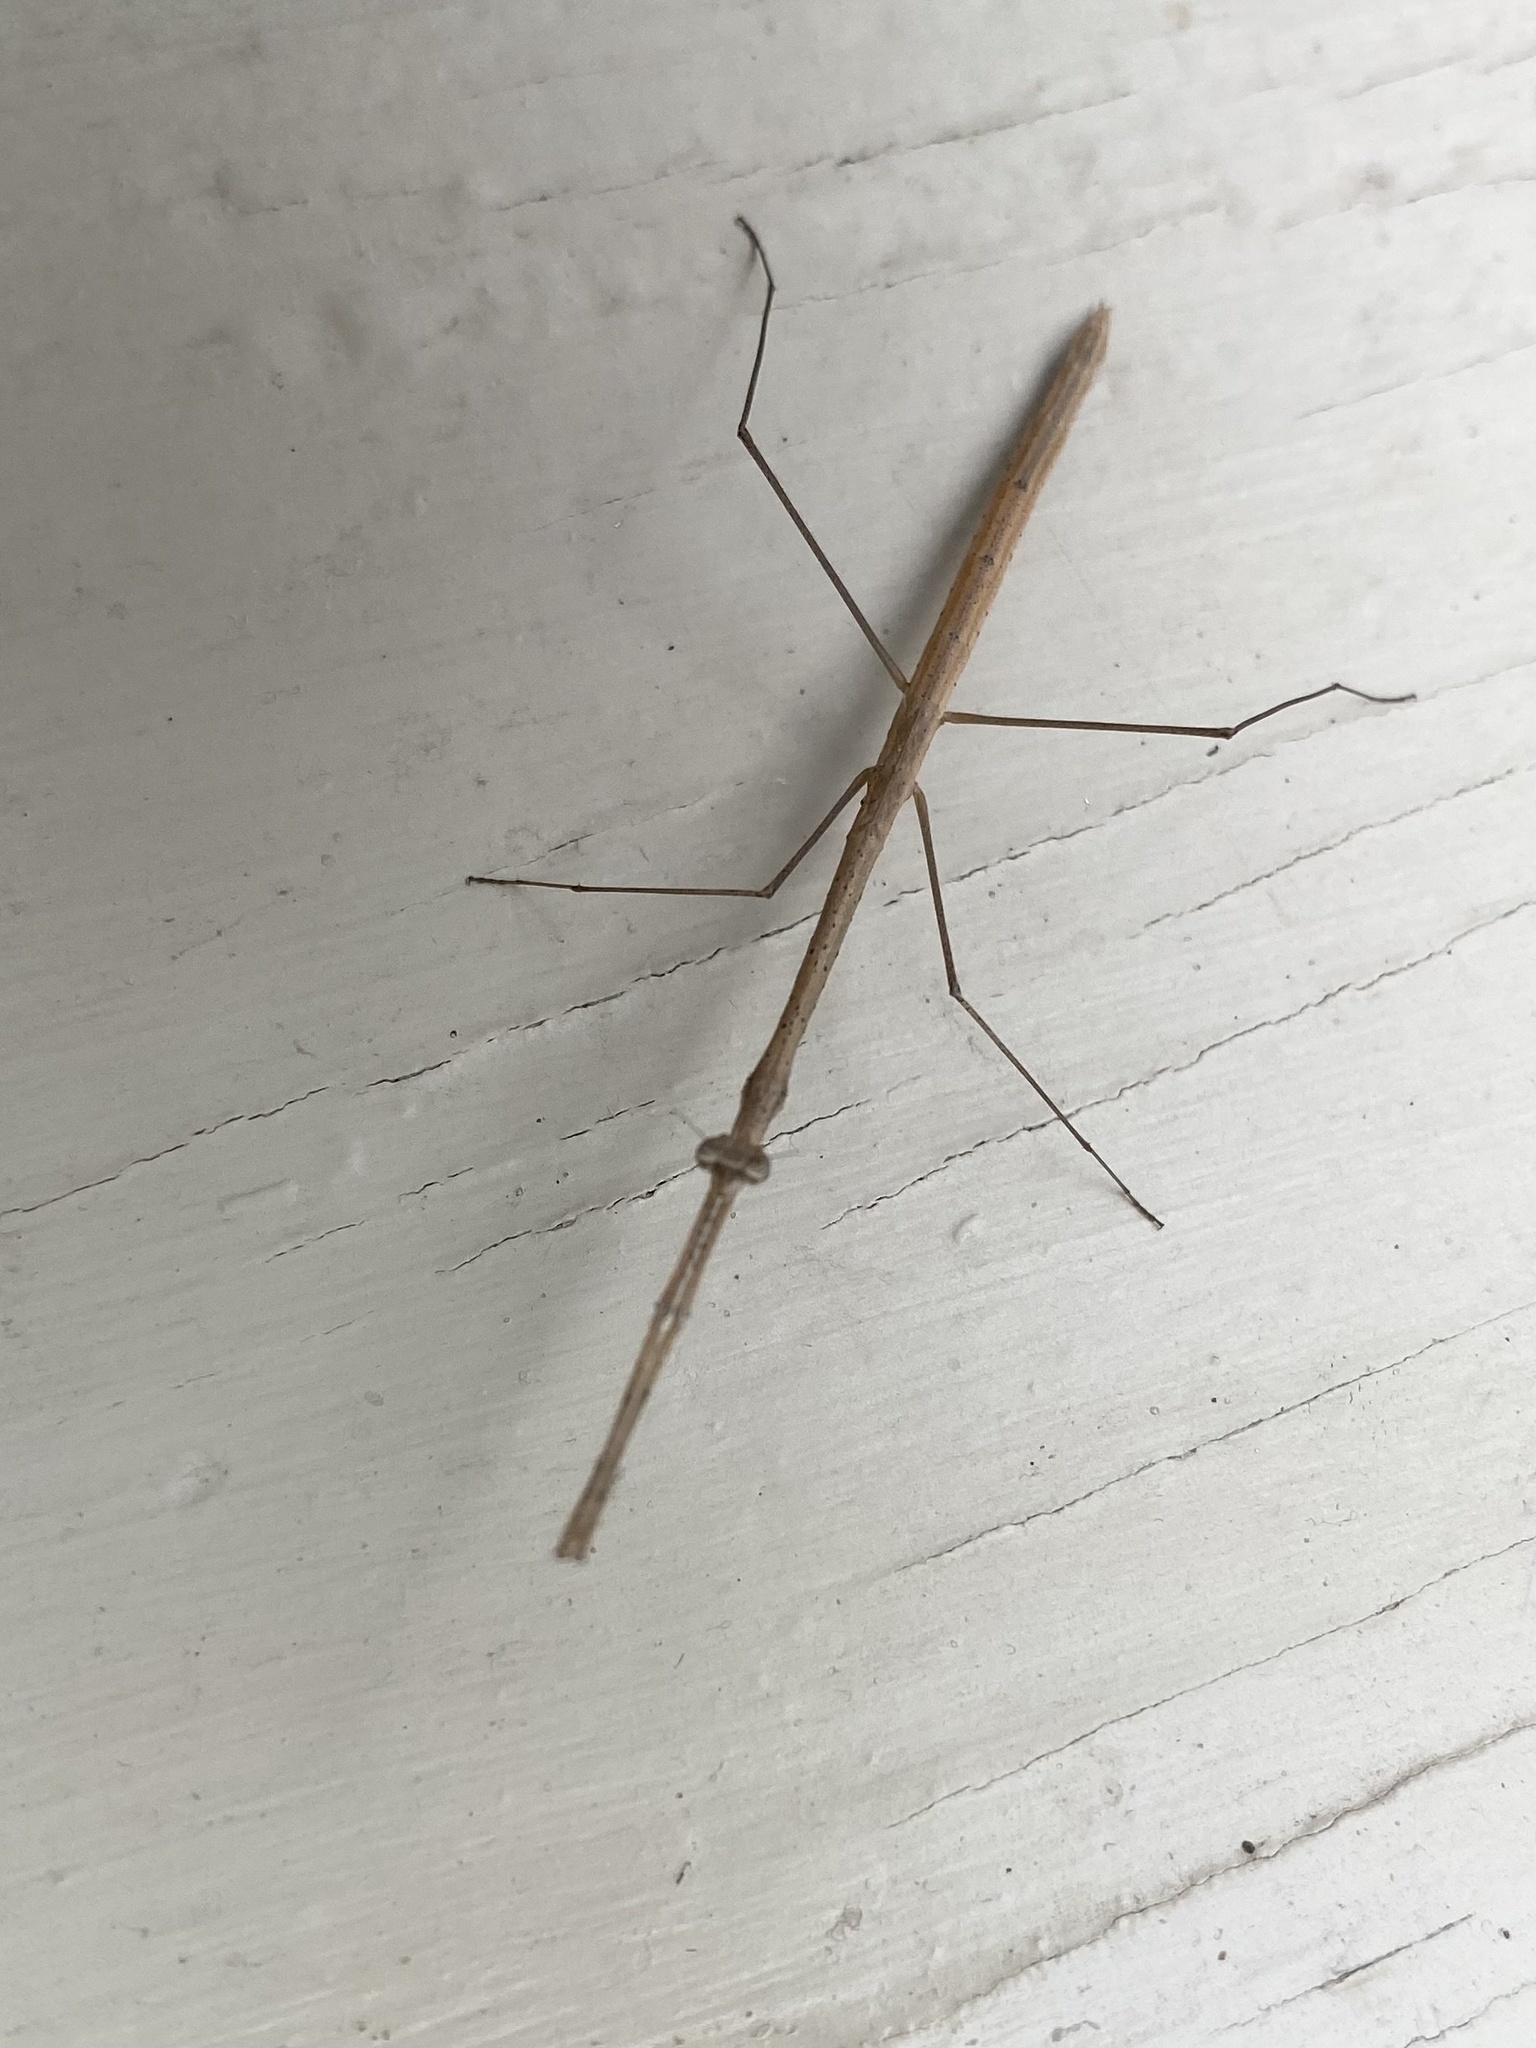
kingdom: Animalia
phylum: Arthropoda
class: Insecta
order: Mantodea
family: Thespidae
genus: Thesprotia
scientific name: Thesprotia graminis
